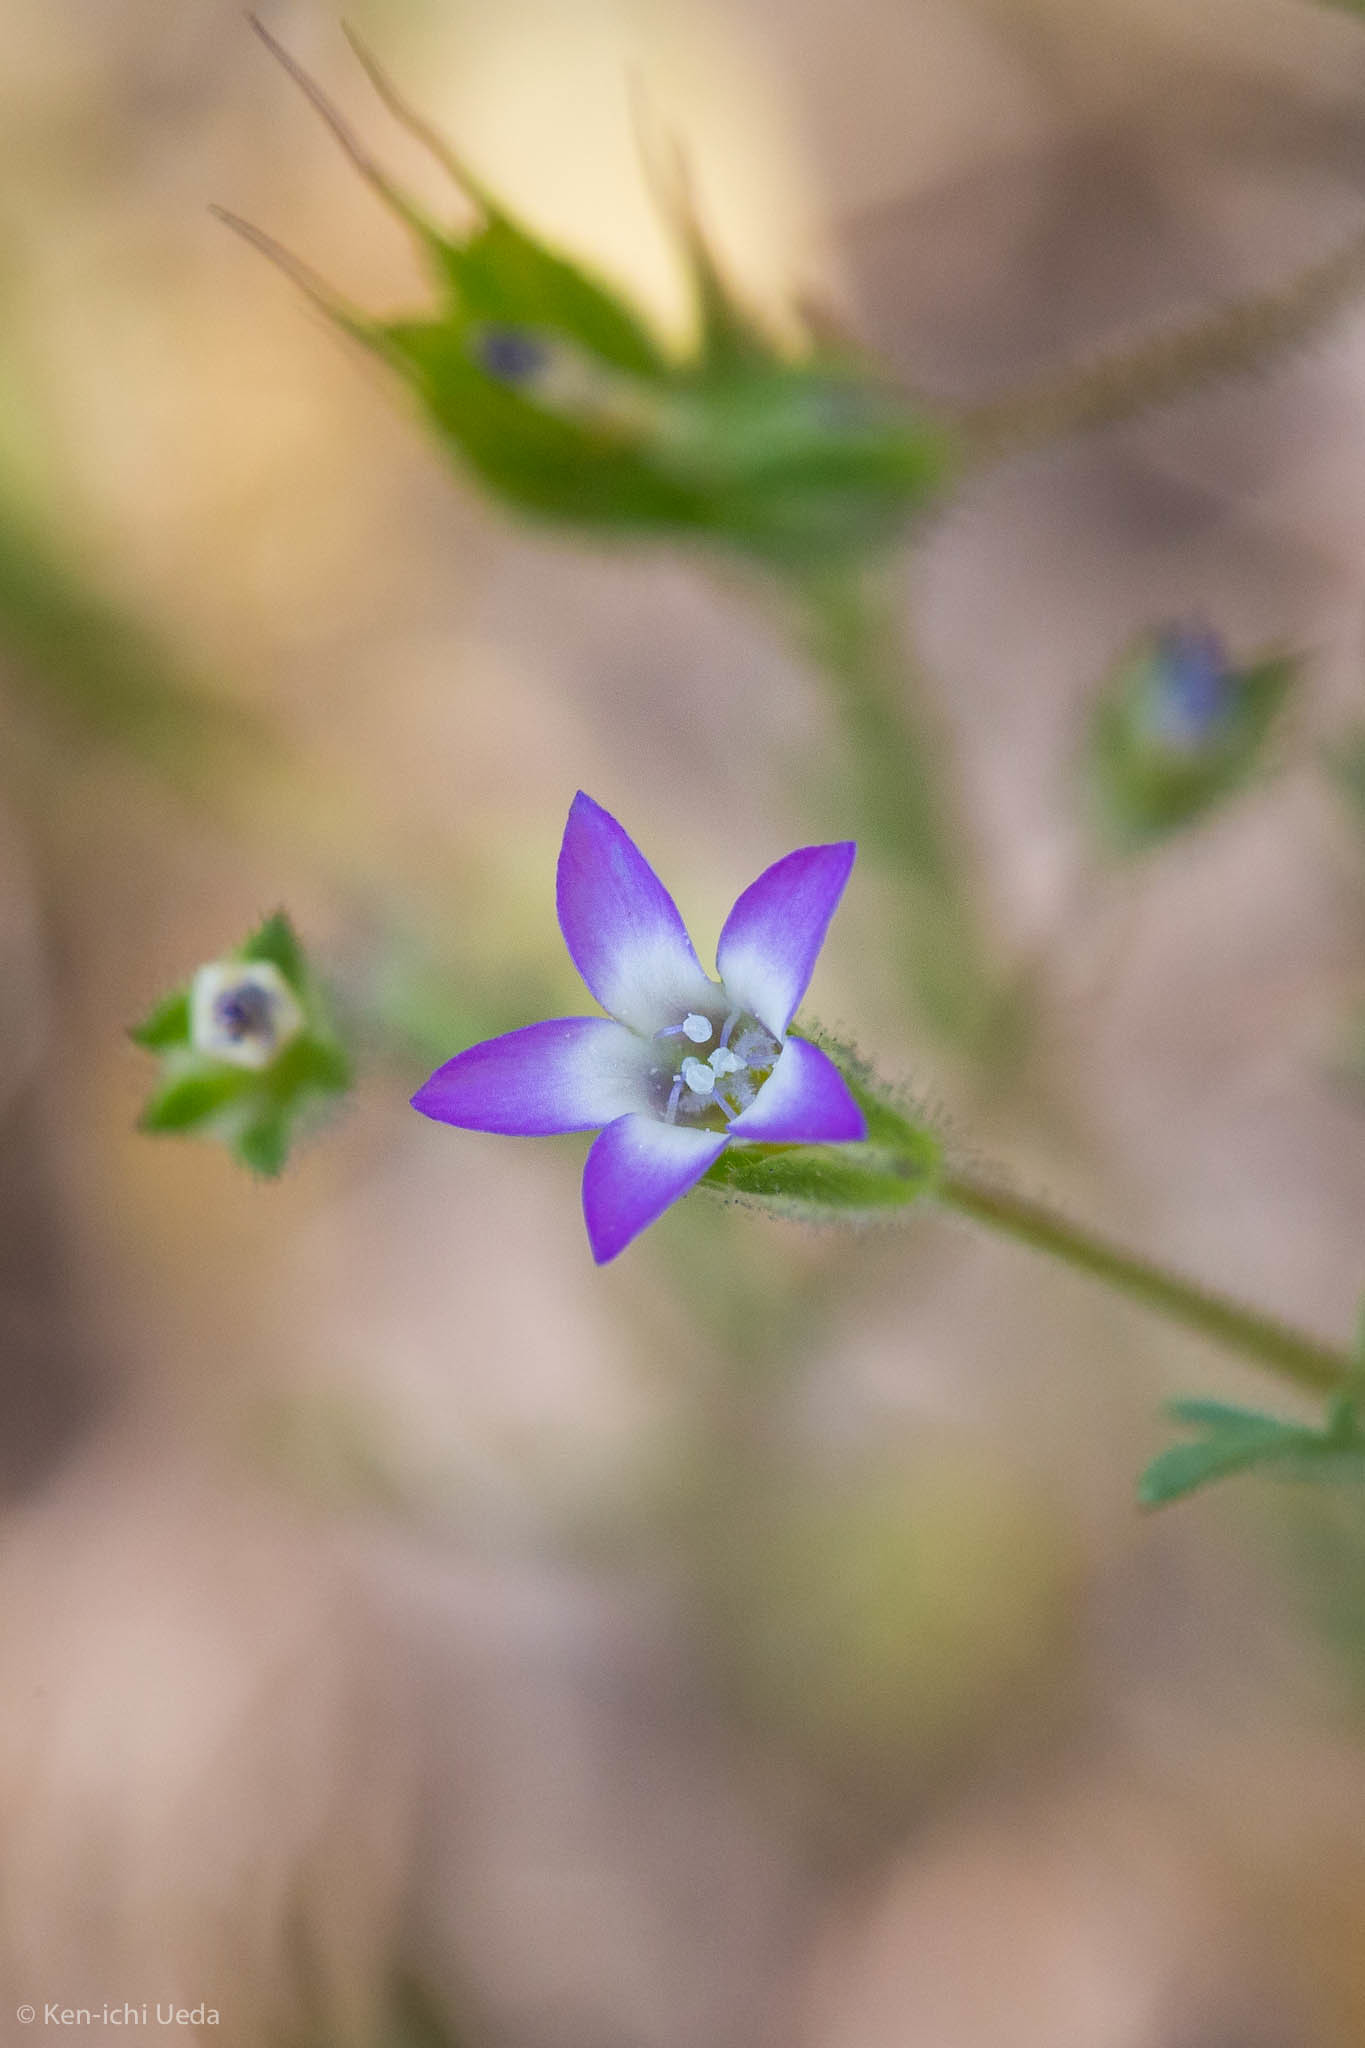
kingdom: Plantae
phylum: Tracheophyta
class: Magnoliopsida
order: Ericales
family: Polemoniaceae
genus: Gilia
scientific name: Gilia achilleifolia
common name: California gily-flower
